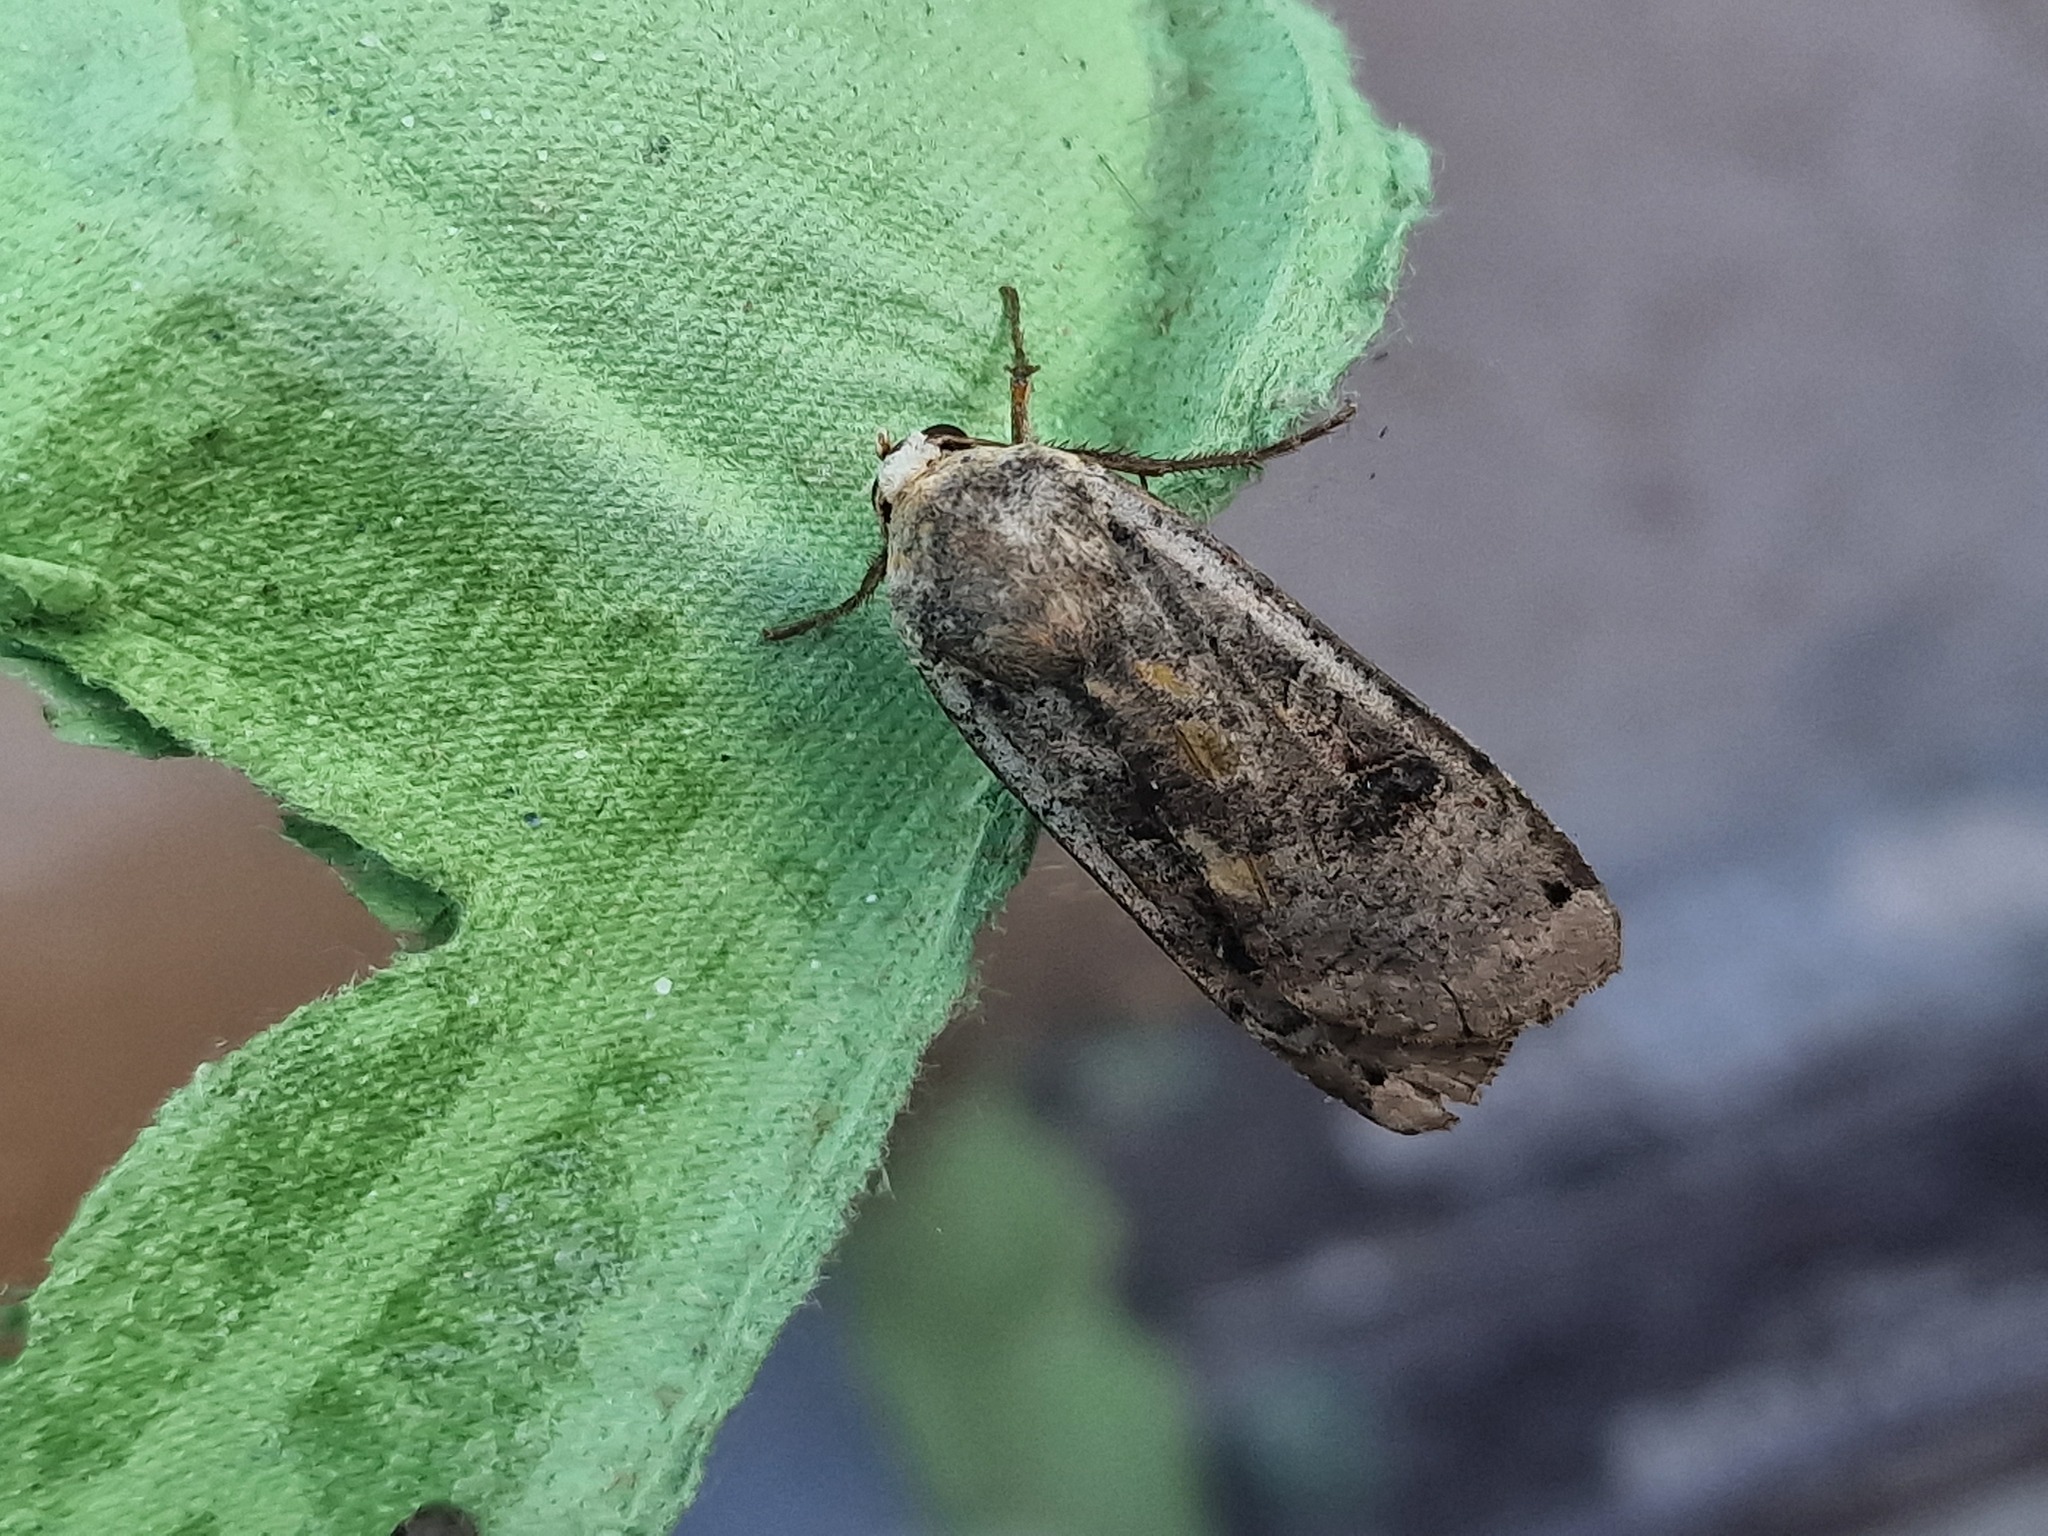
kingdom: Animalia
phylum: Arthropoda
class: Insecta
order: Lepidoptera
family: Noctuidae
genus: Noctua
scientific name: Noctua pronuba
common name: Large yellow underwing
